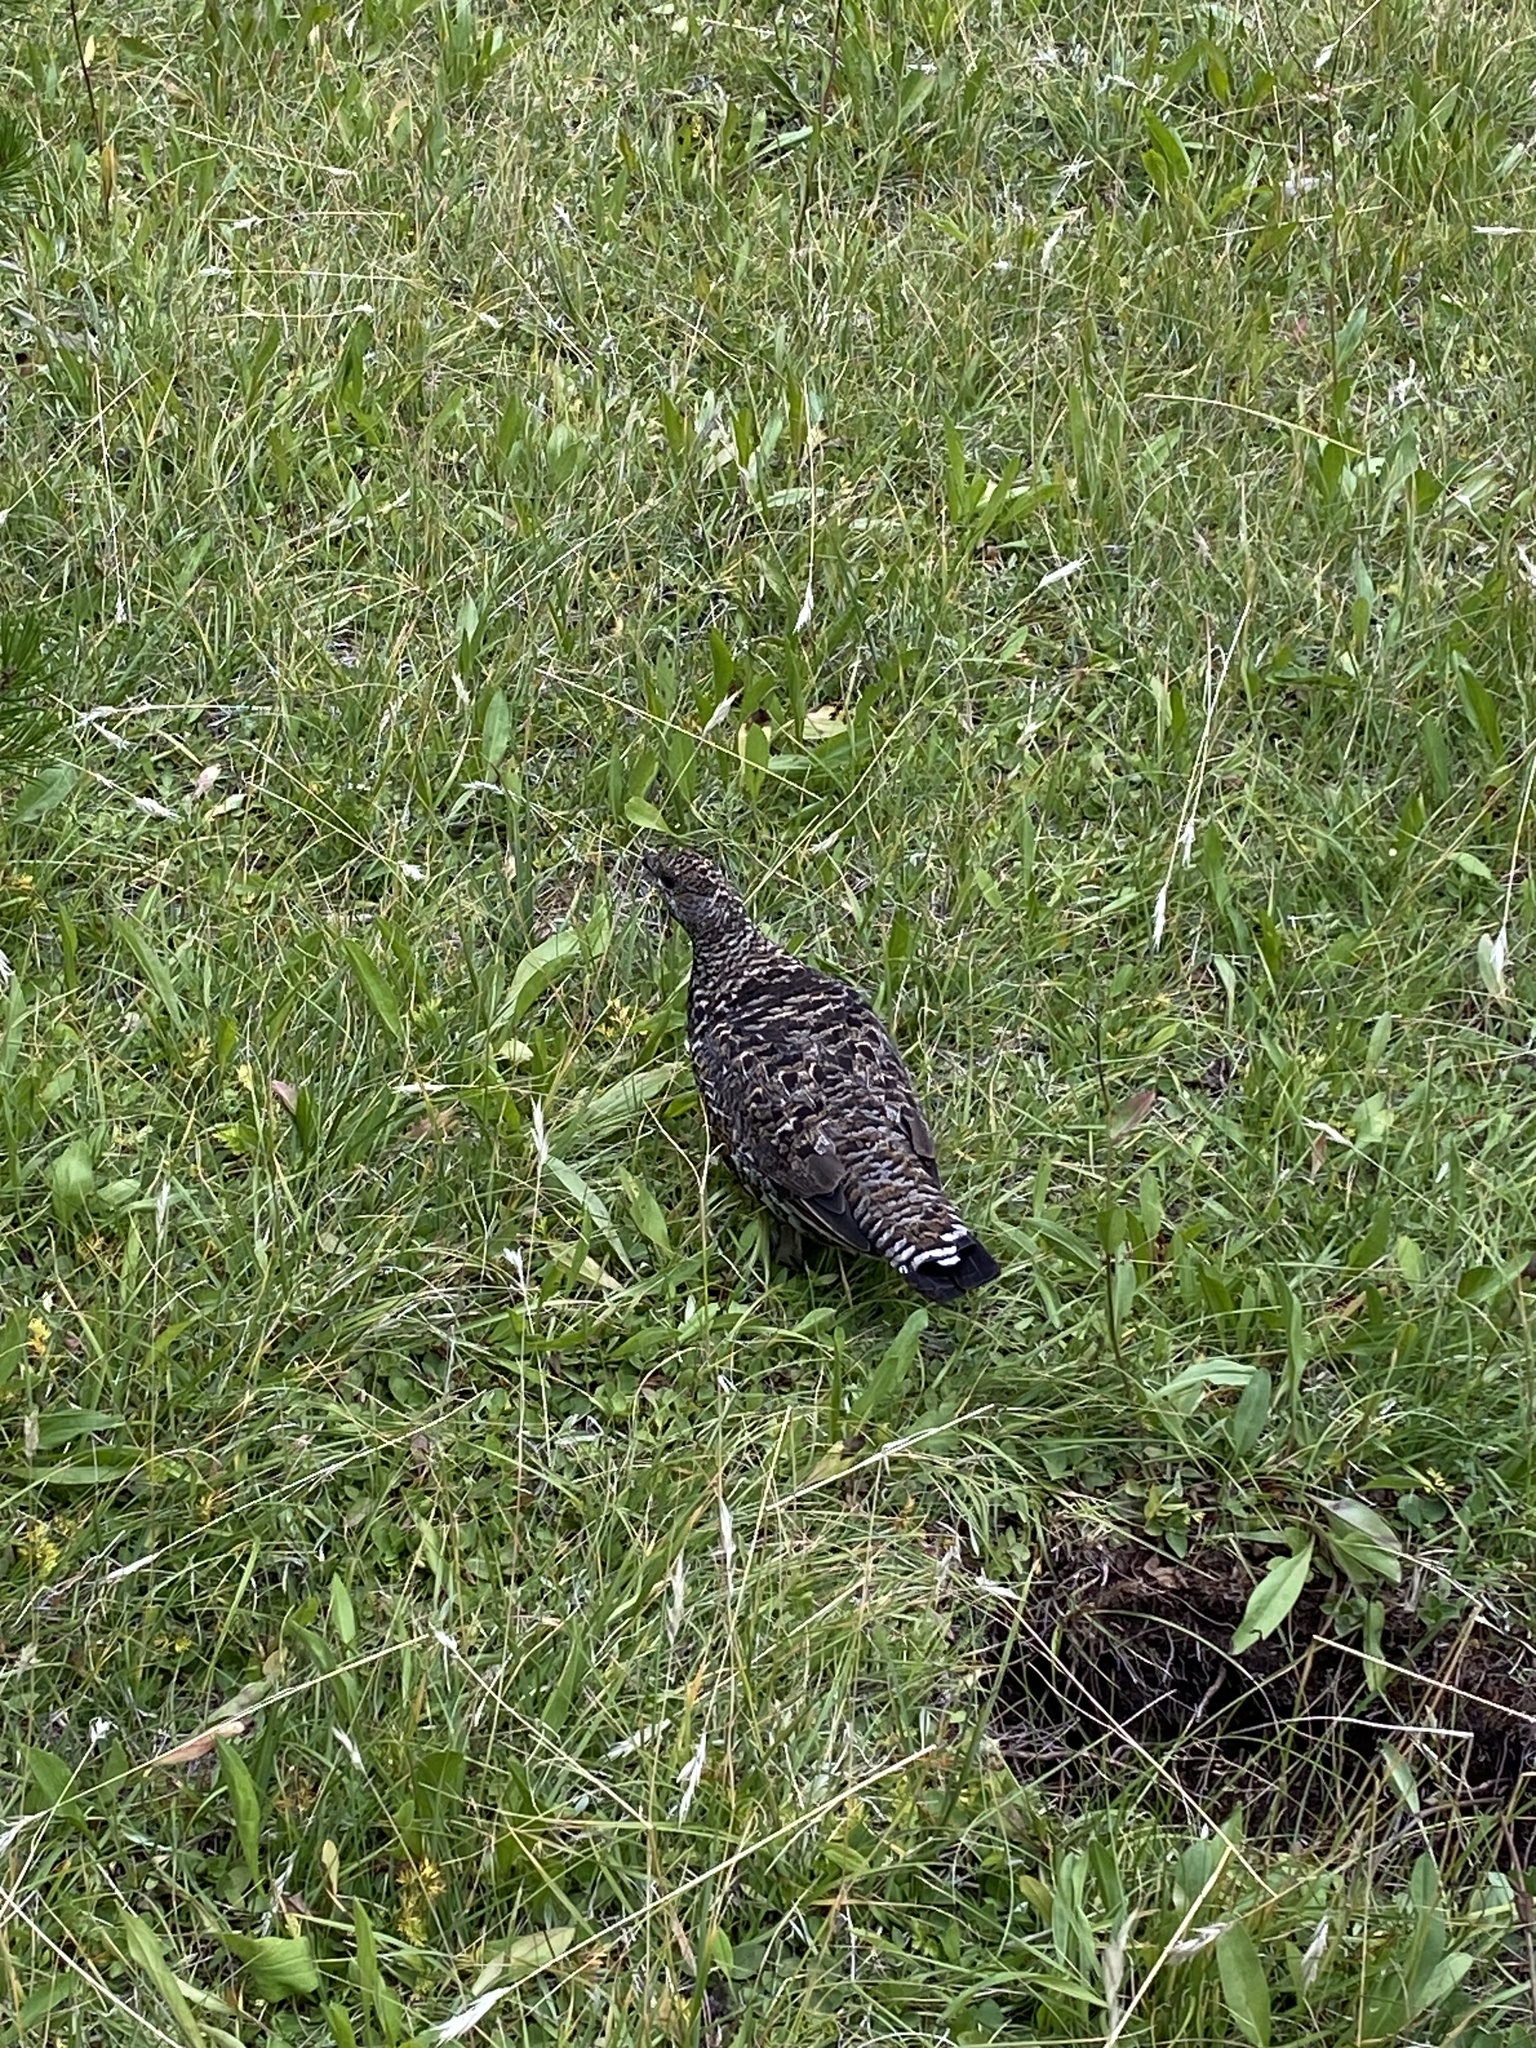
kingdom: Animalia
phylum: Chordata
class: Aves
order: Galliformes
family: Phasianidae
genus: Canachites
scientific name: Canachites canadensis
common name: Spruce grouse
